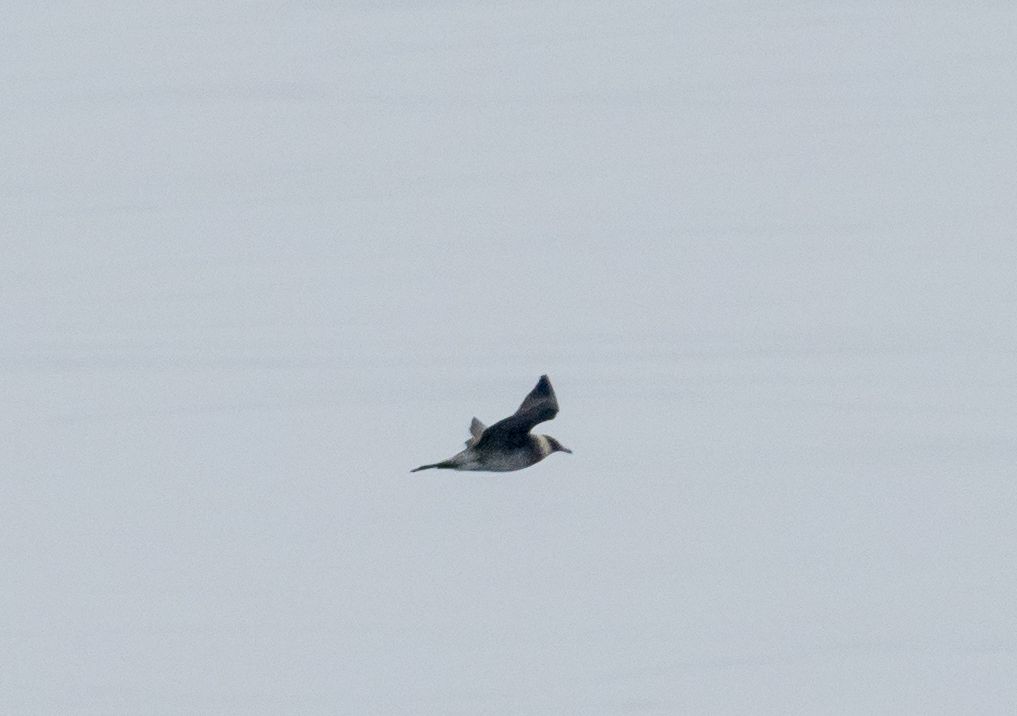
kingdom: Animalia
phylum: Chordata
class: Aves
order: Charadriiformes
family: Stercorariidae
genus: Stercorarius
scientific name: Stercorarius pomarinus
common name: Pomarine jaeger
